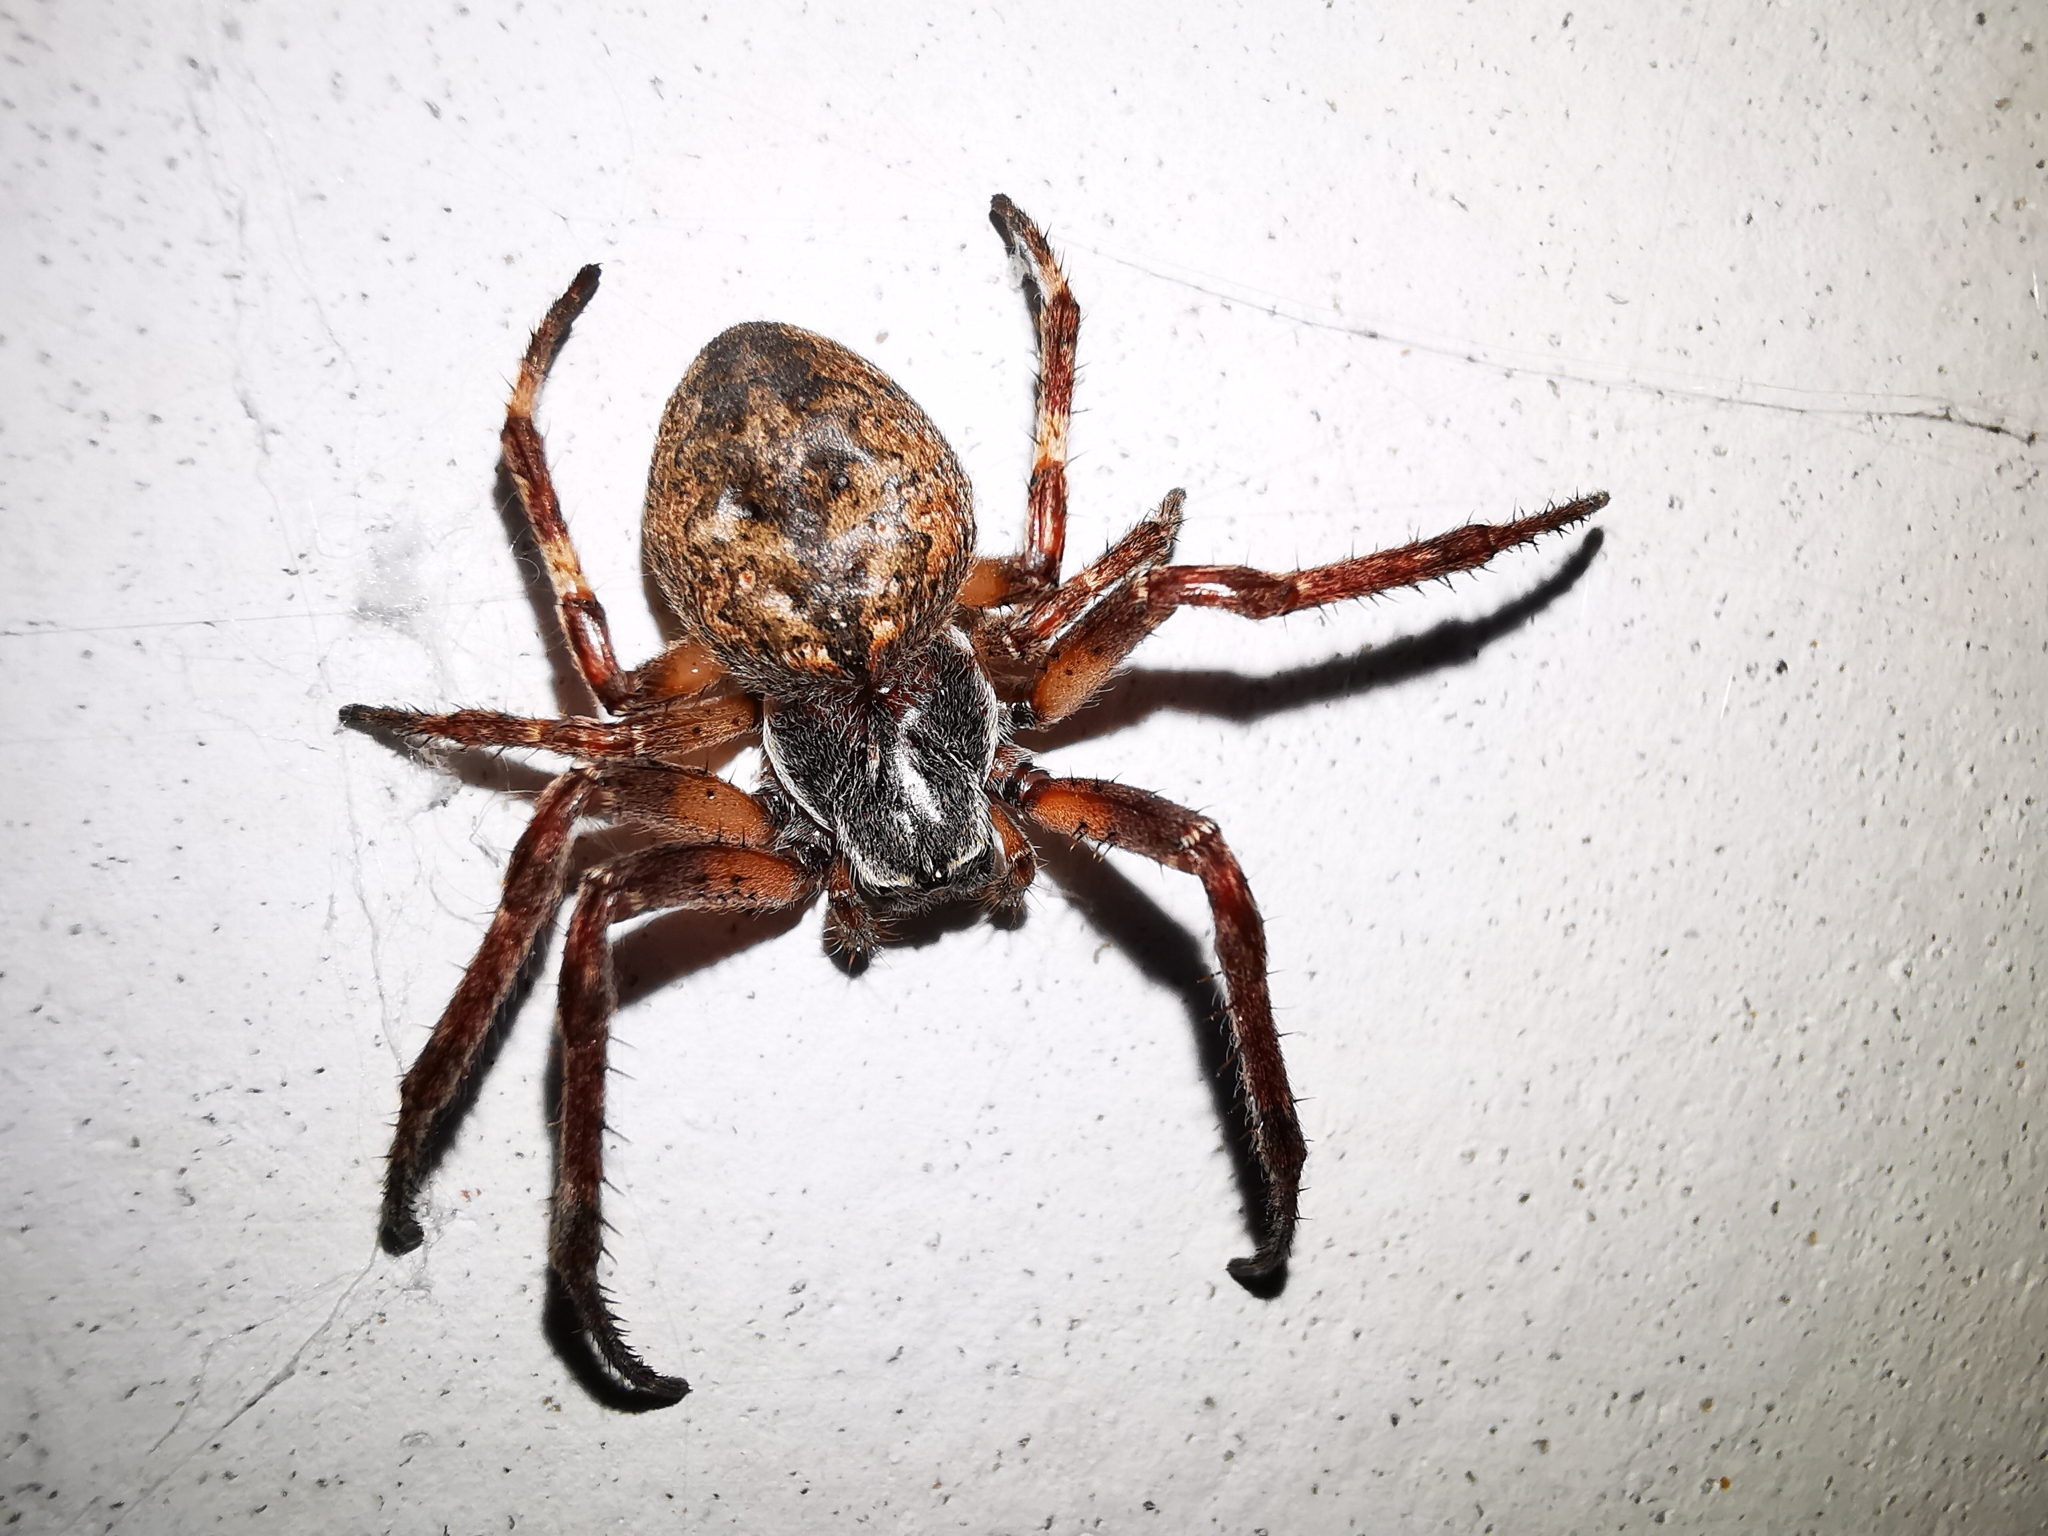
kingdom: Animalia
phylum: Arthropoda
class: Arachnida
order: Araneae
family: Araneidae
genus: Nuctenea
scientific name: Nuctenea umbratica
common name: Toad spider
